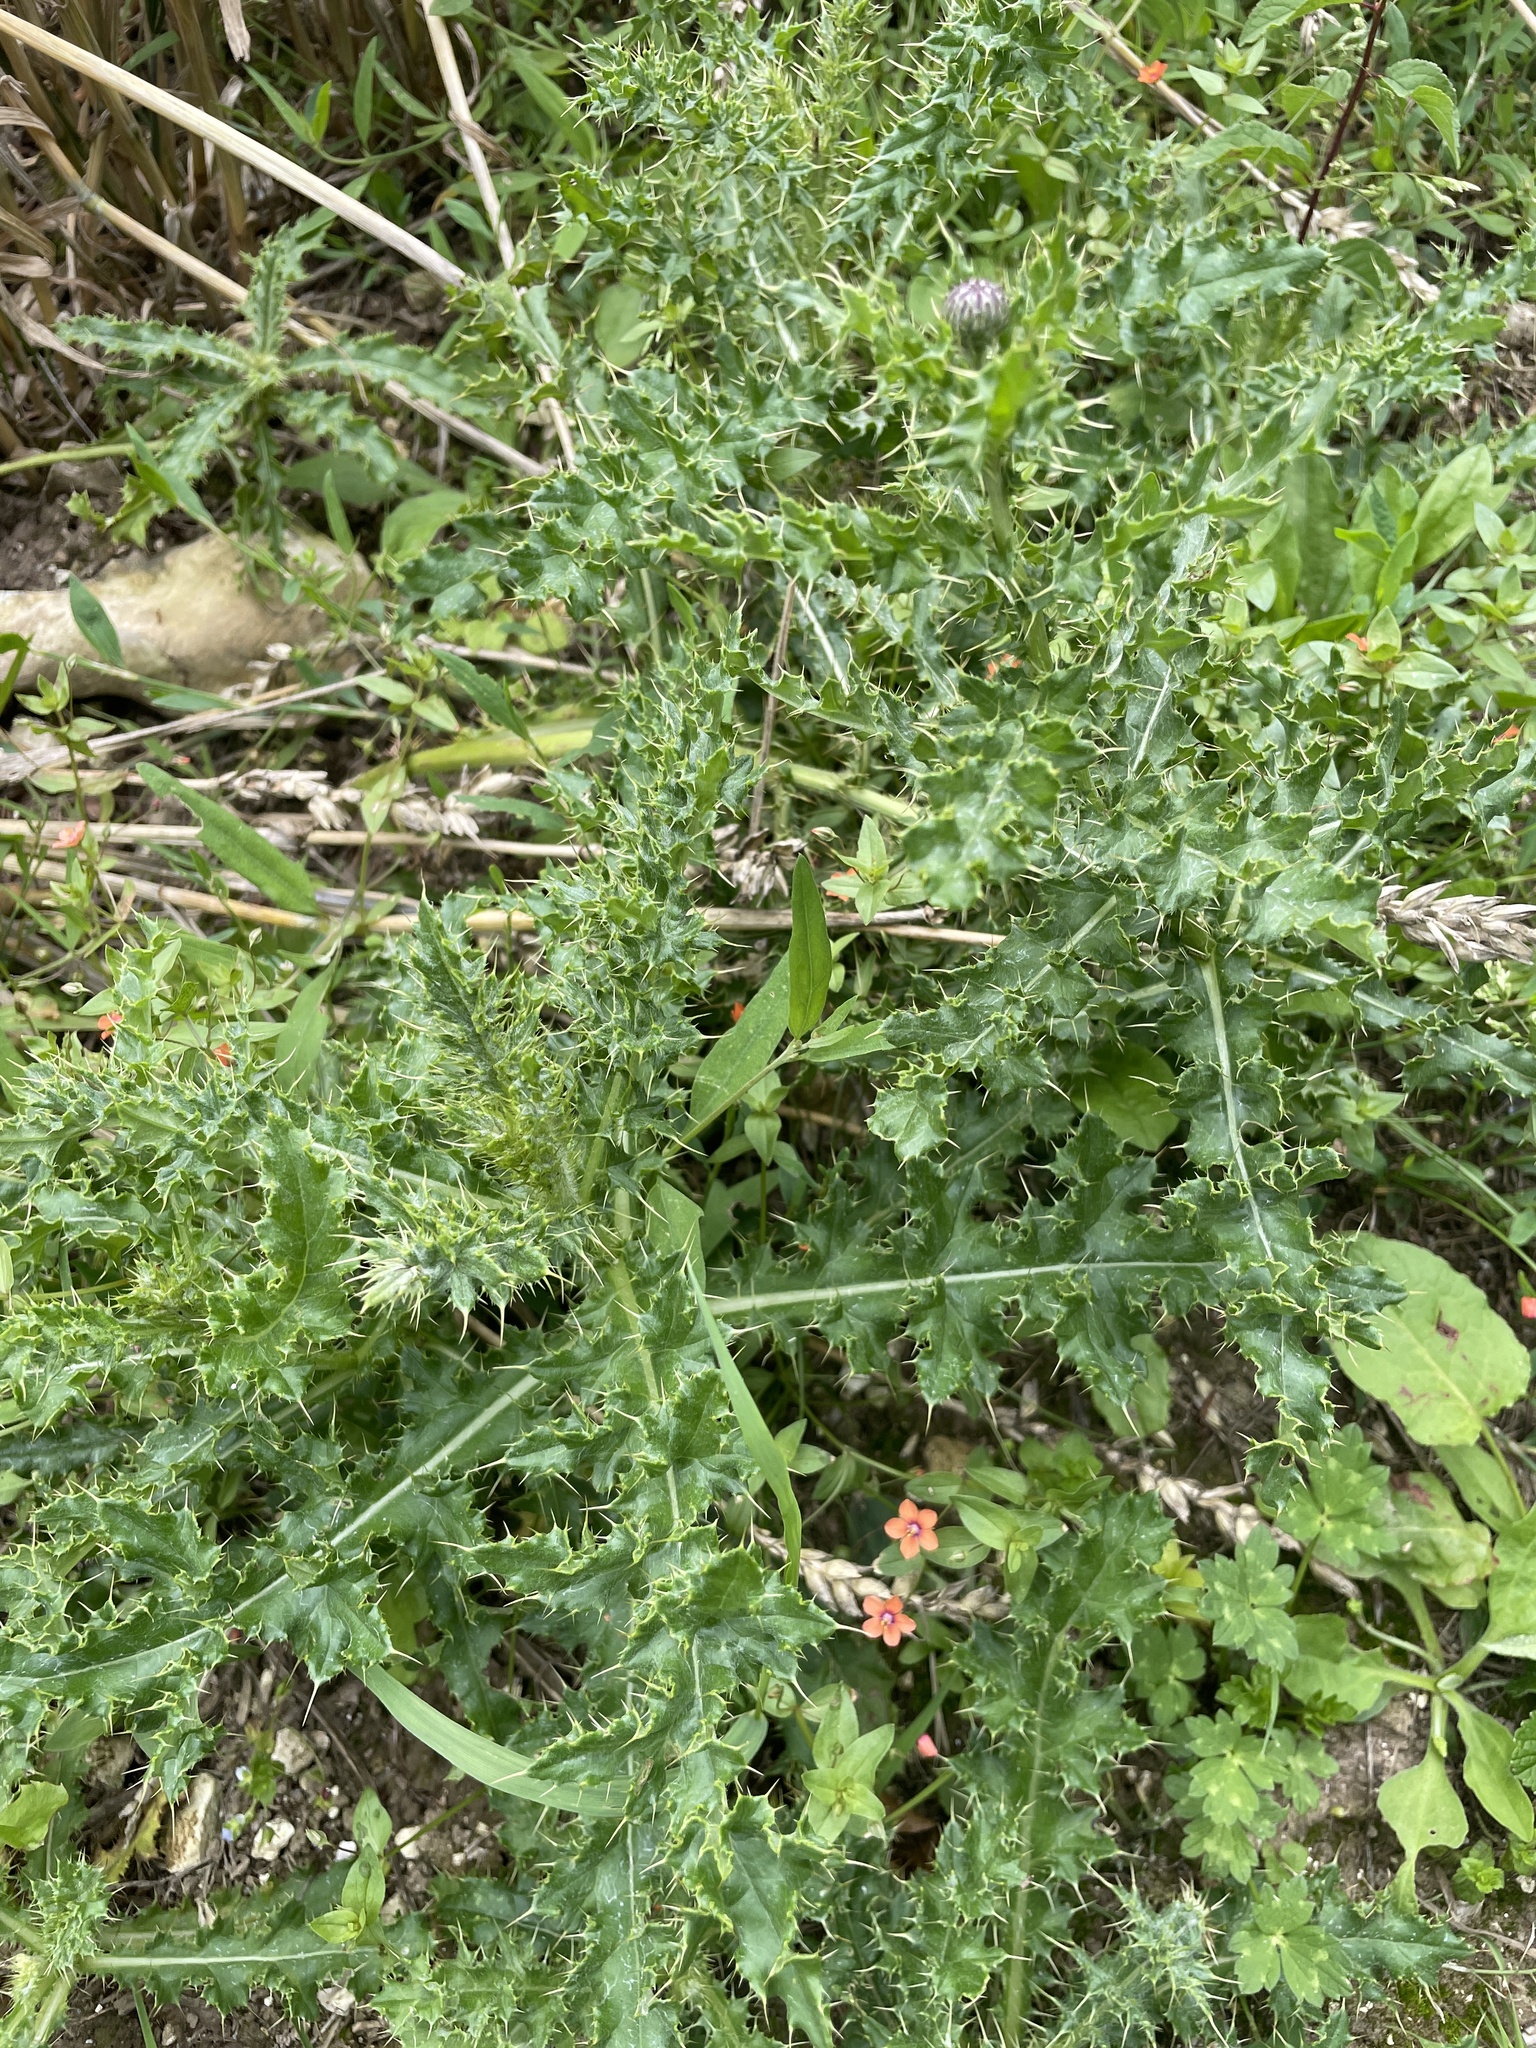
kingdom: Plantae
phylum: Tracheophyta
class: Magnoliopsida
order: Asterales
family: Asteraceae
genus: Cirsium
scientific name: Cirsium arvense
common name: Creeping thistle
